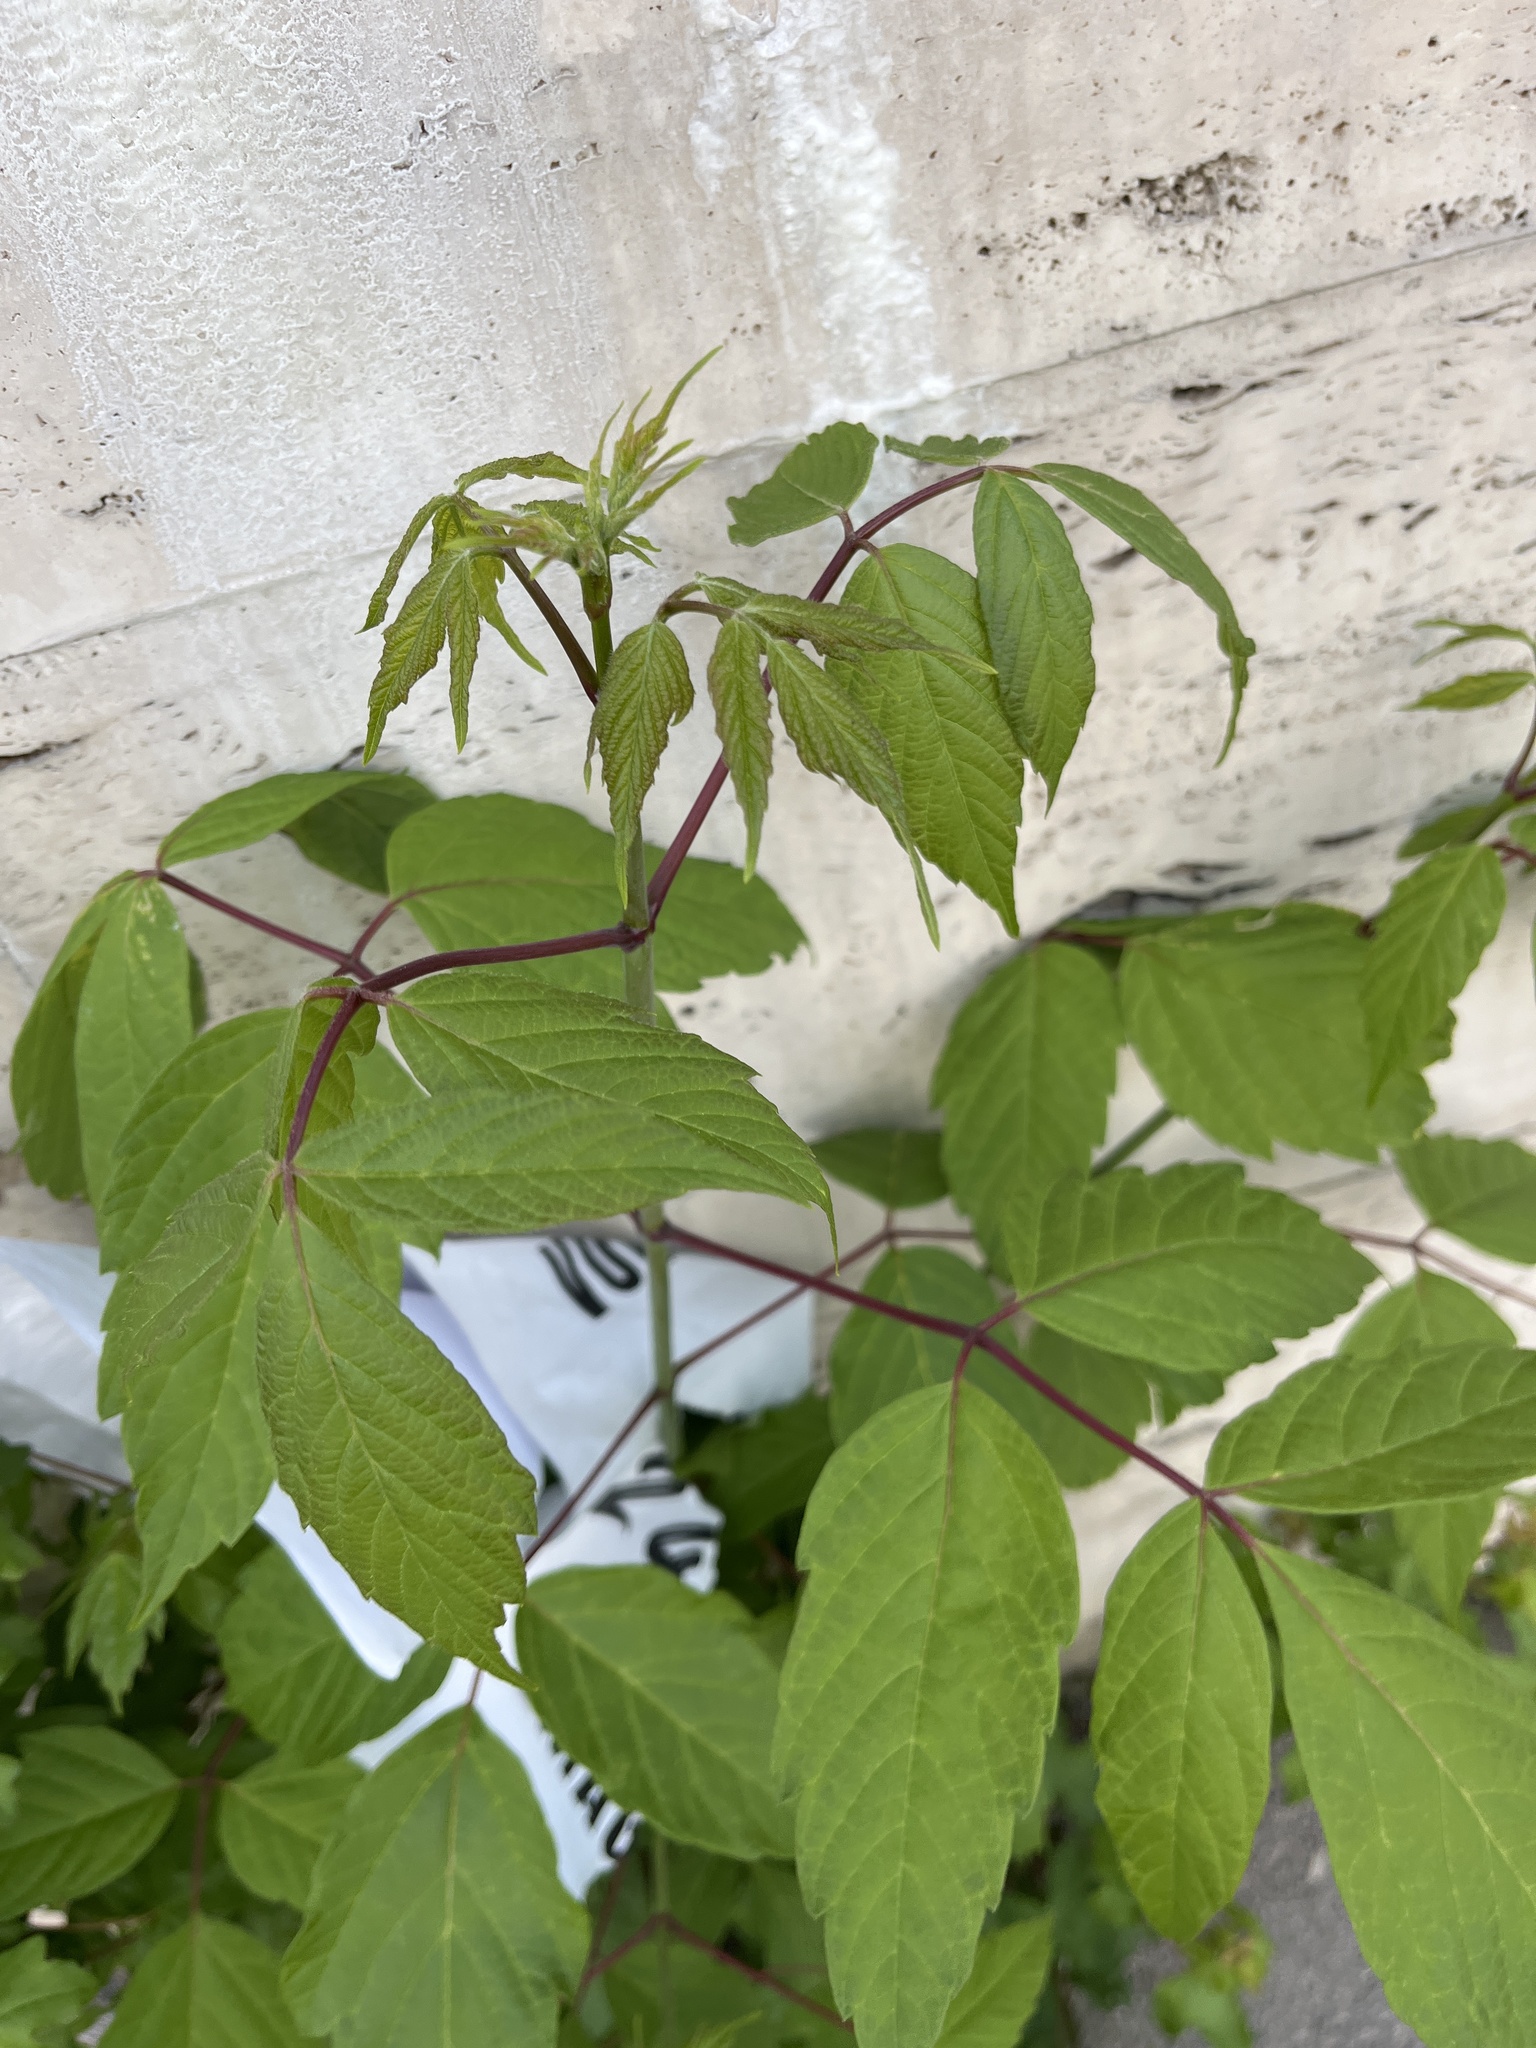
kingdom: Plantae
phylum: Tracheophyta
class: Magnoliopsida
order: Sapindales
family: Sapindaceae
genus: Acer
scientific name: Acer negundo
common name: Ashleaf maple
